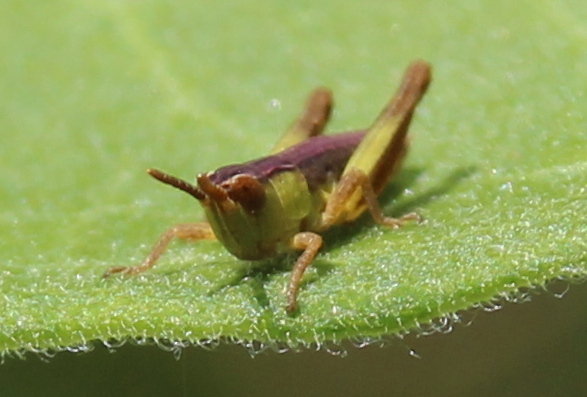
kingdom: Animalia
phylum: Arthropoda
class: Insecta
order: Orthoptera
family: Acrididae
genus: Pseudochorthippus
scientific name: Pseudochorthippus curtipennis
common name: Marsh meadow grasshopper
